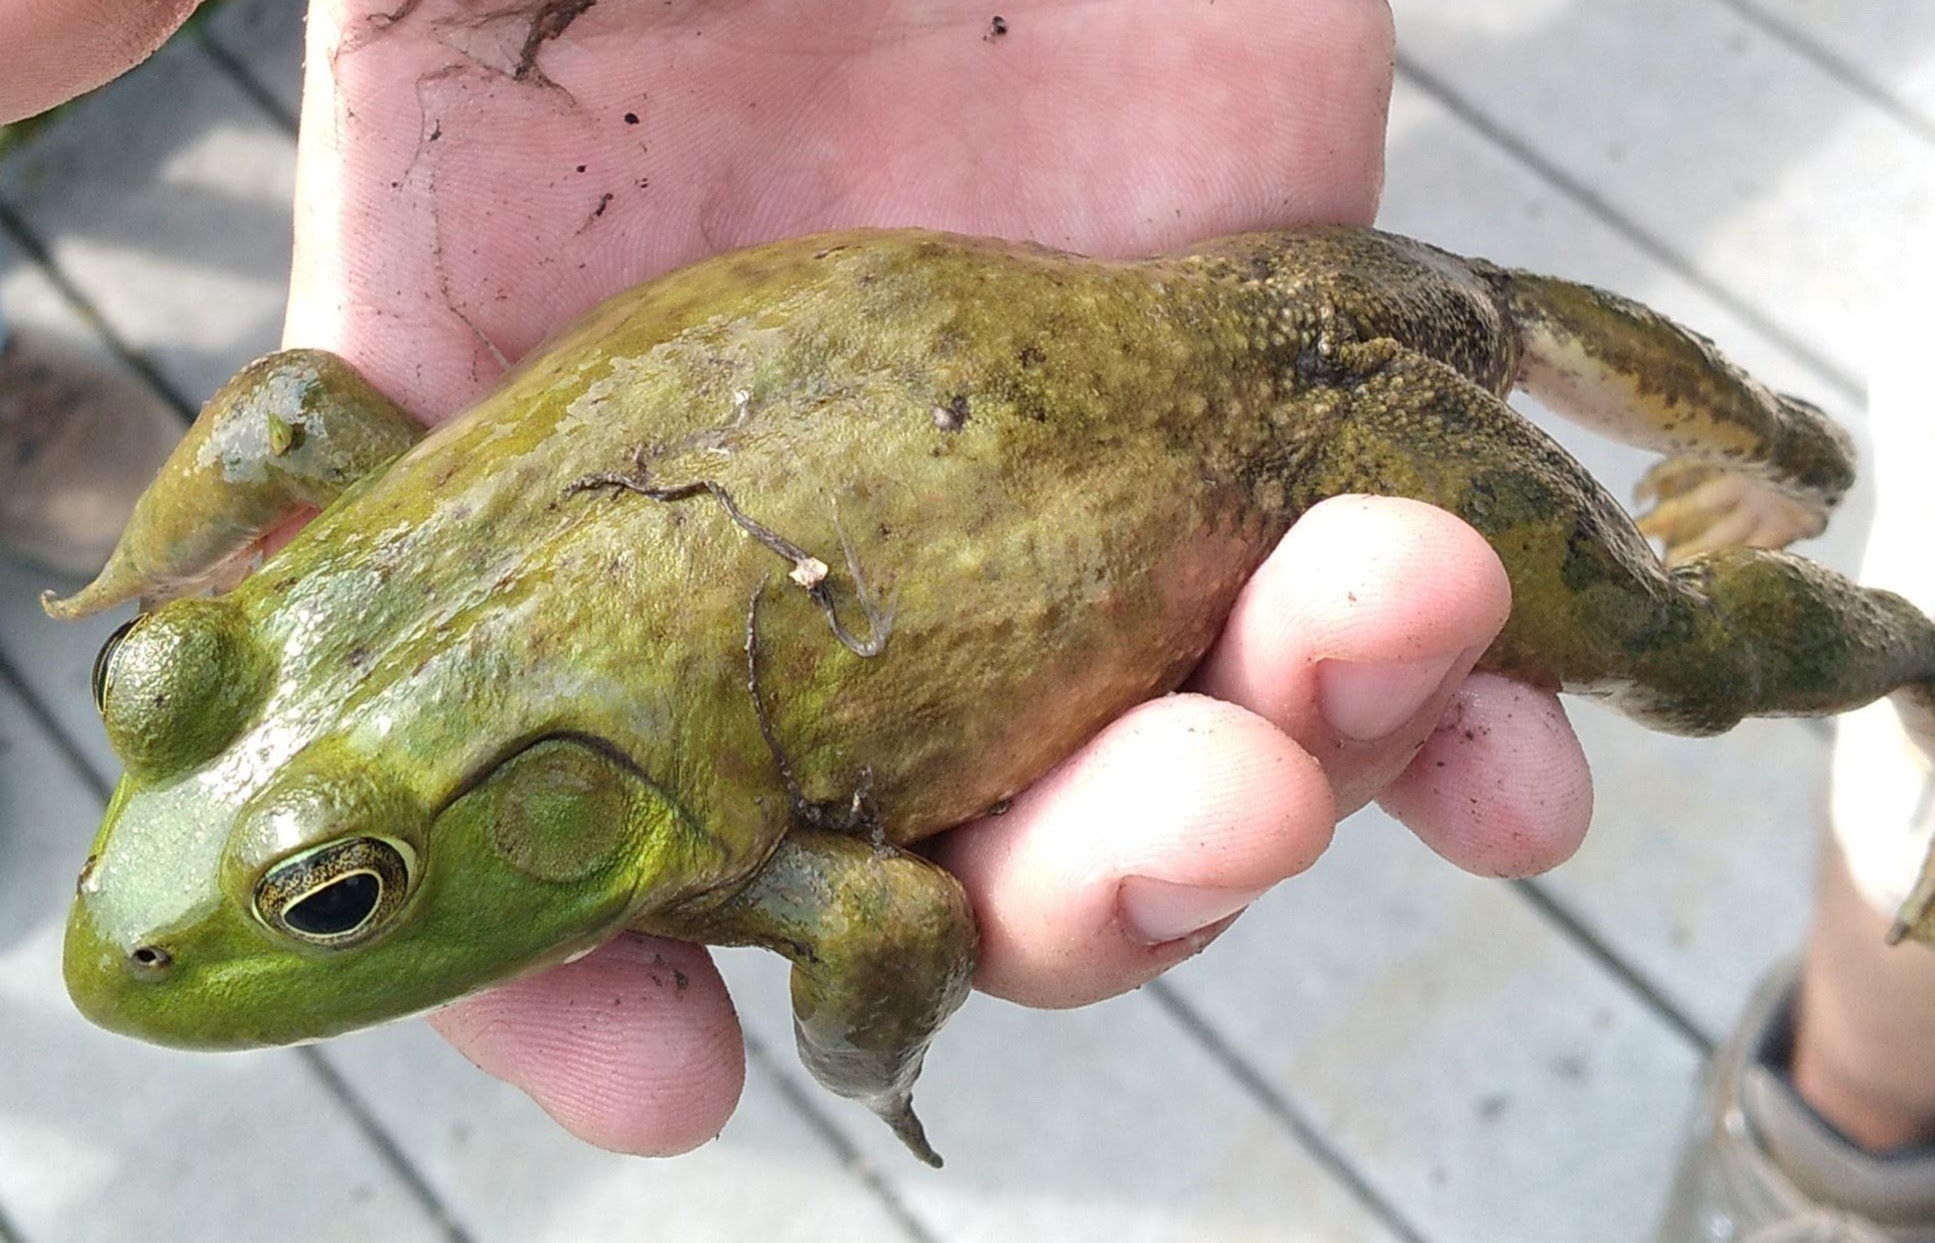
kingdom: Animalia
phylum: Chordata
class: Amphibia
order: Anura
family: Ranidae
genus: Lithobates
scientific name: Lithobates catesbeianus
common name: American bullfrog
